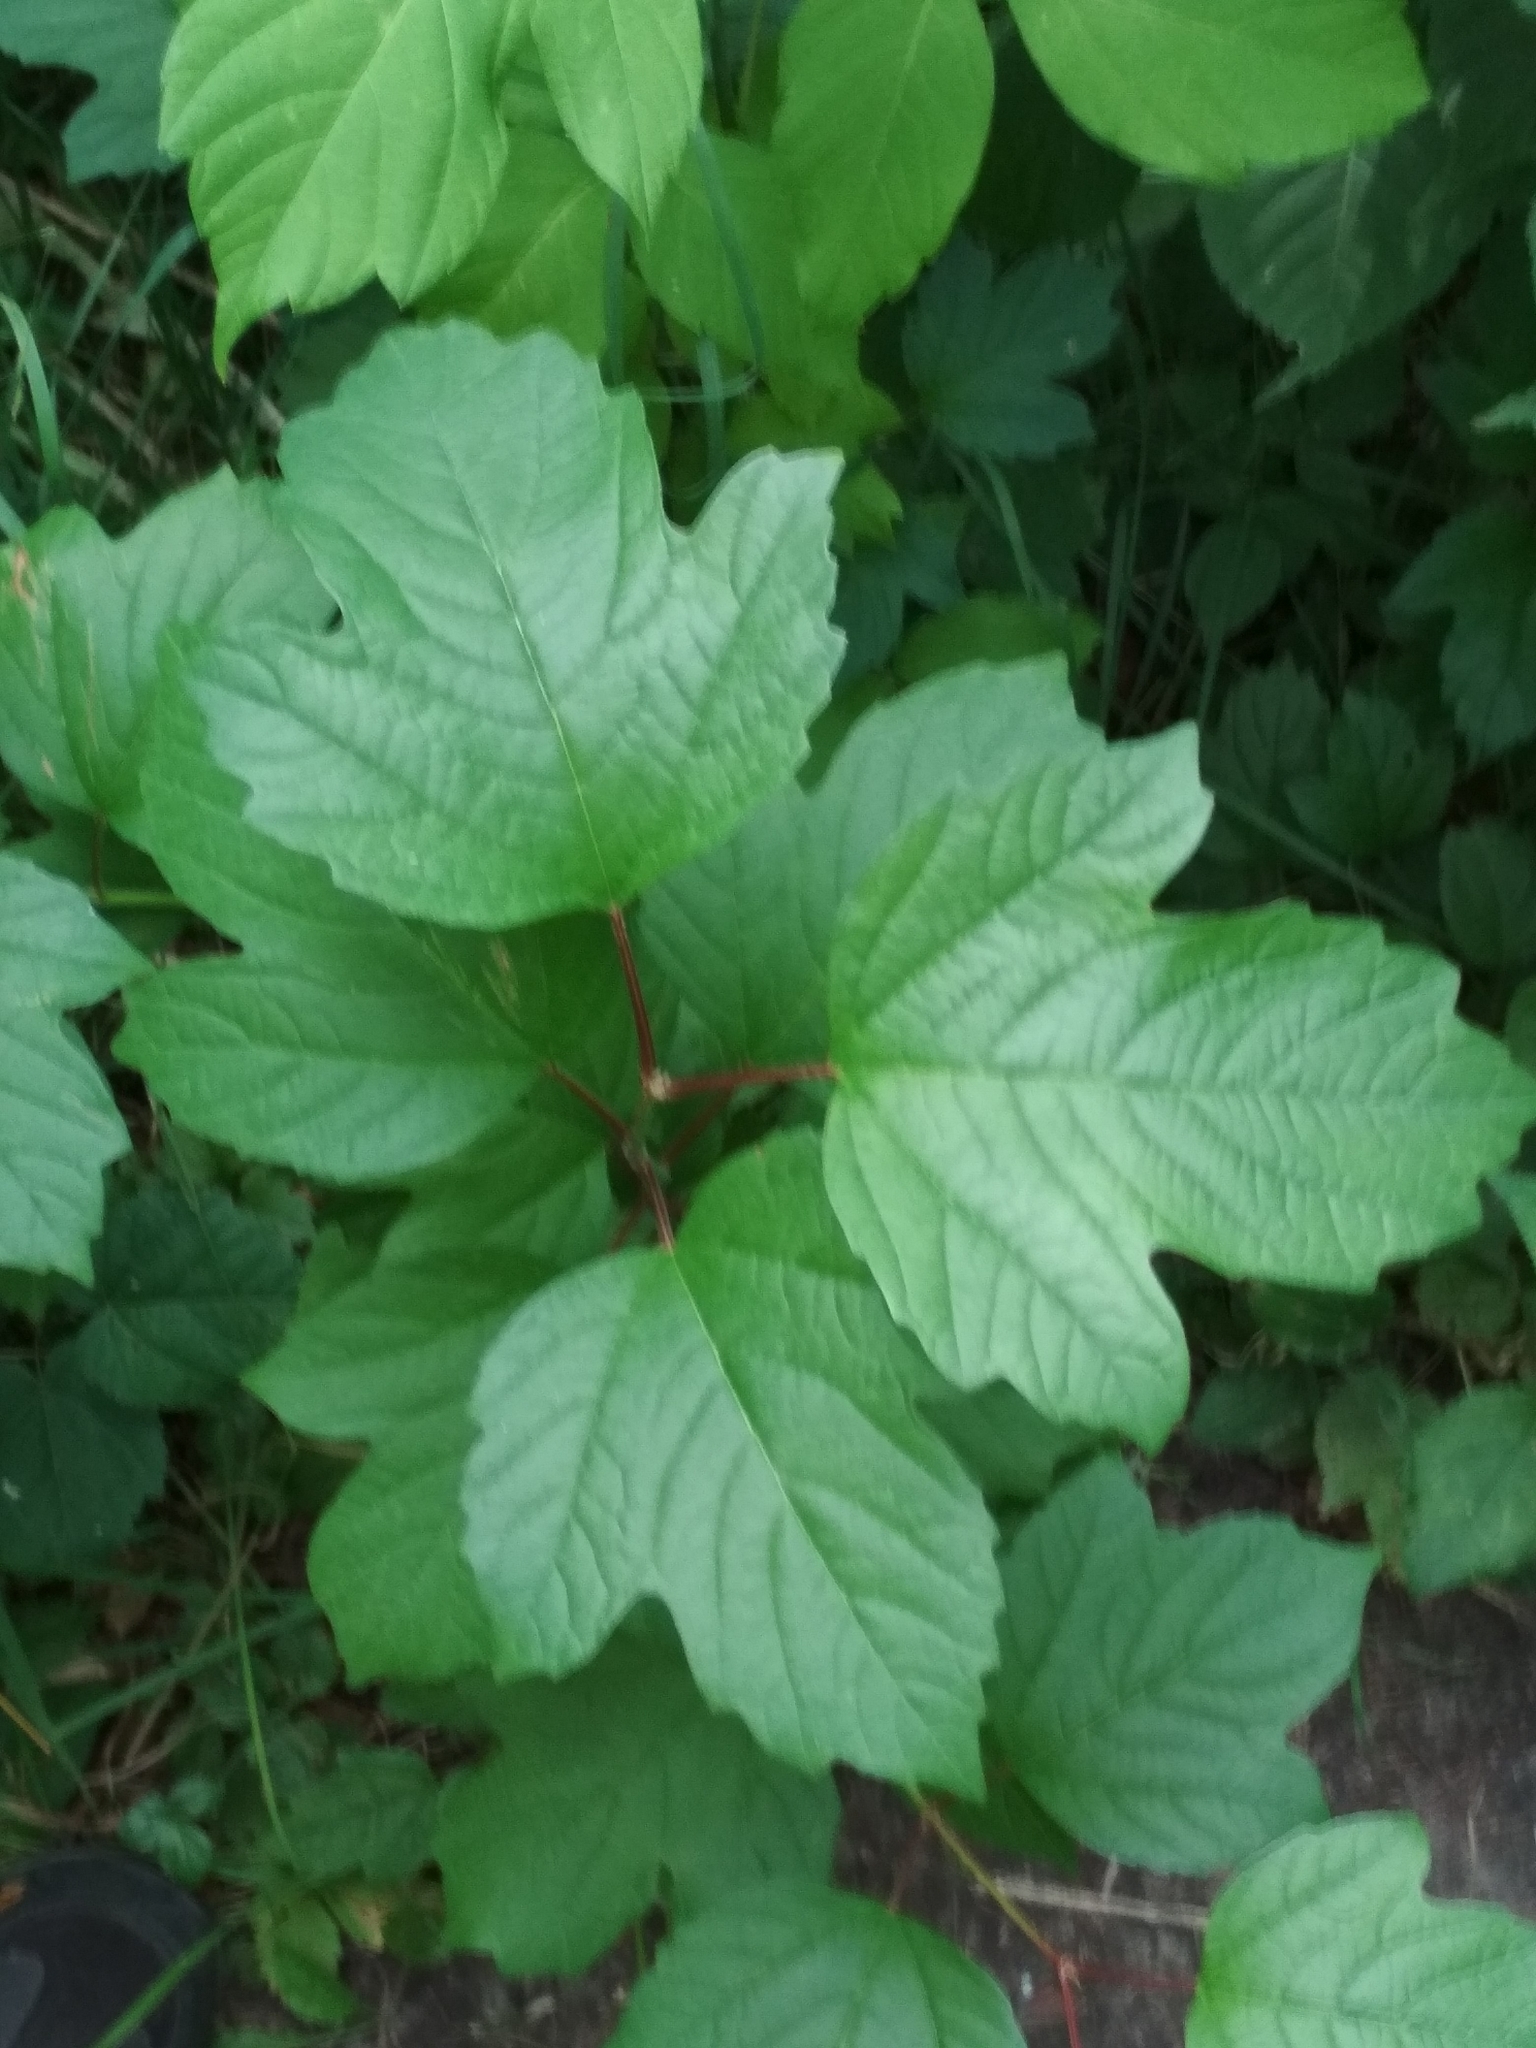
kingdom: Plantae
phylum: Tracheophyta
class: Magnoliopsida
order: Dipsacales
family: Viburnaceae
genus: Viburnum
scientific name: Viburnum opulus
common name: Guelder-rose
